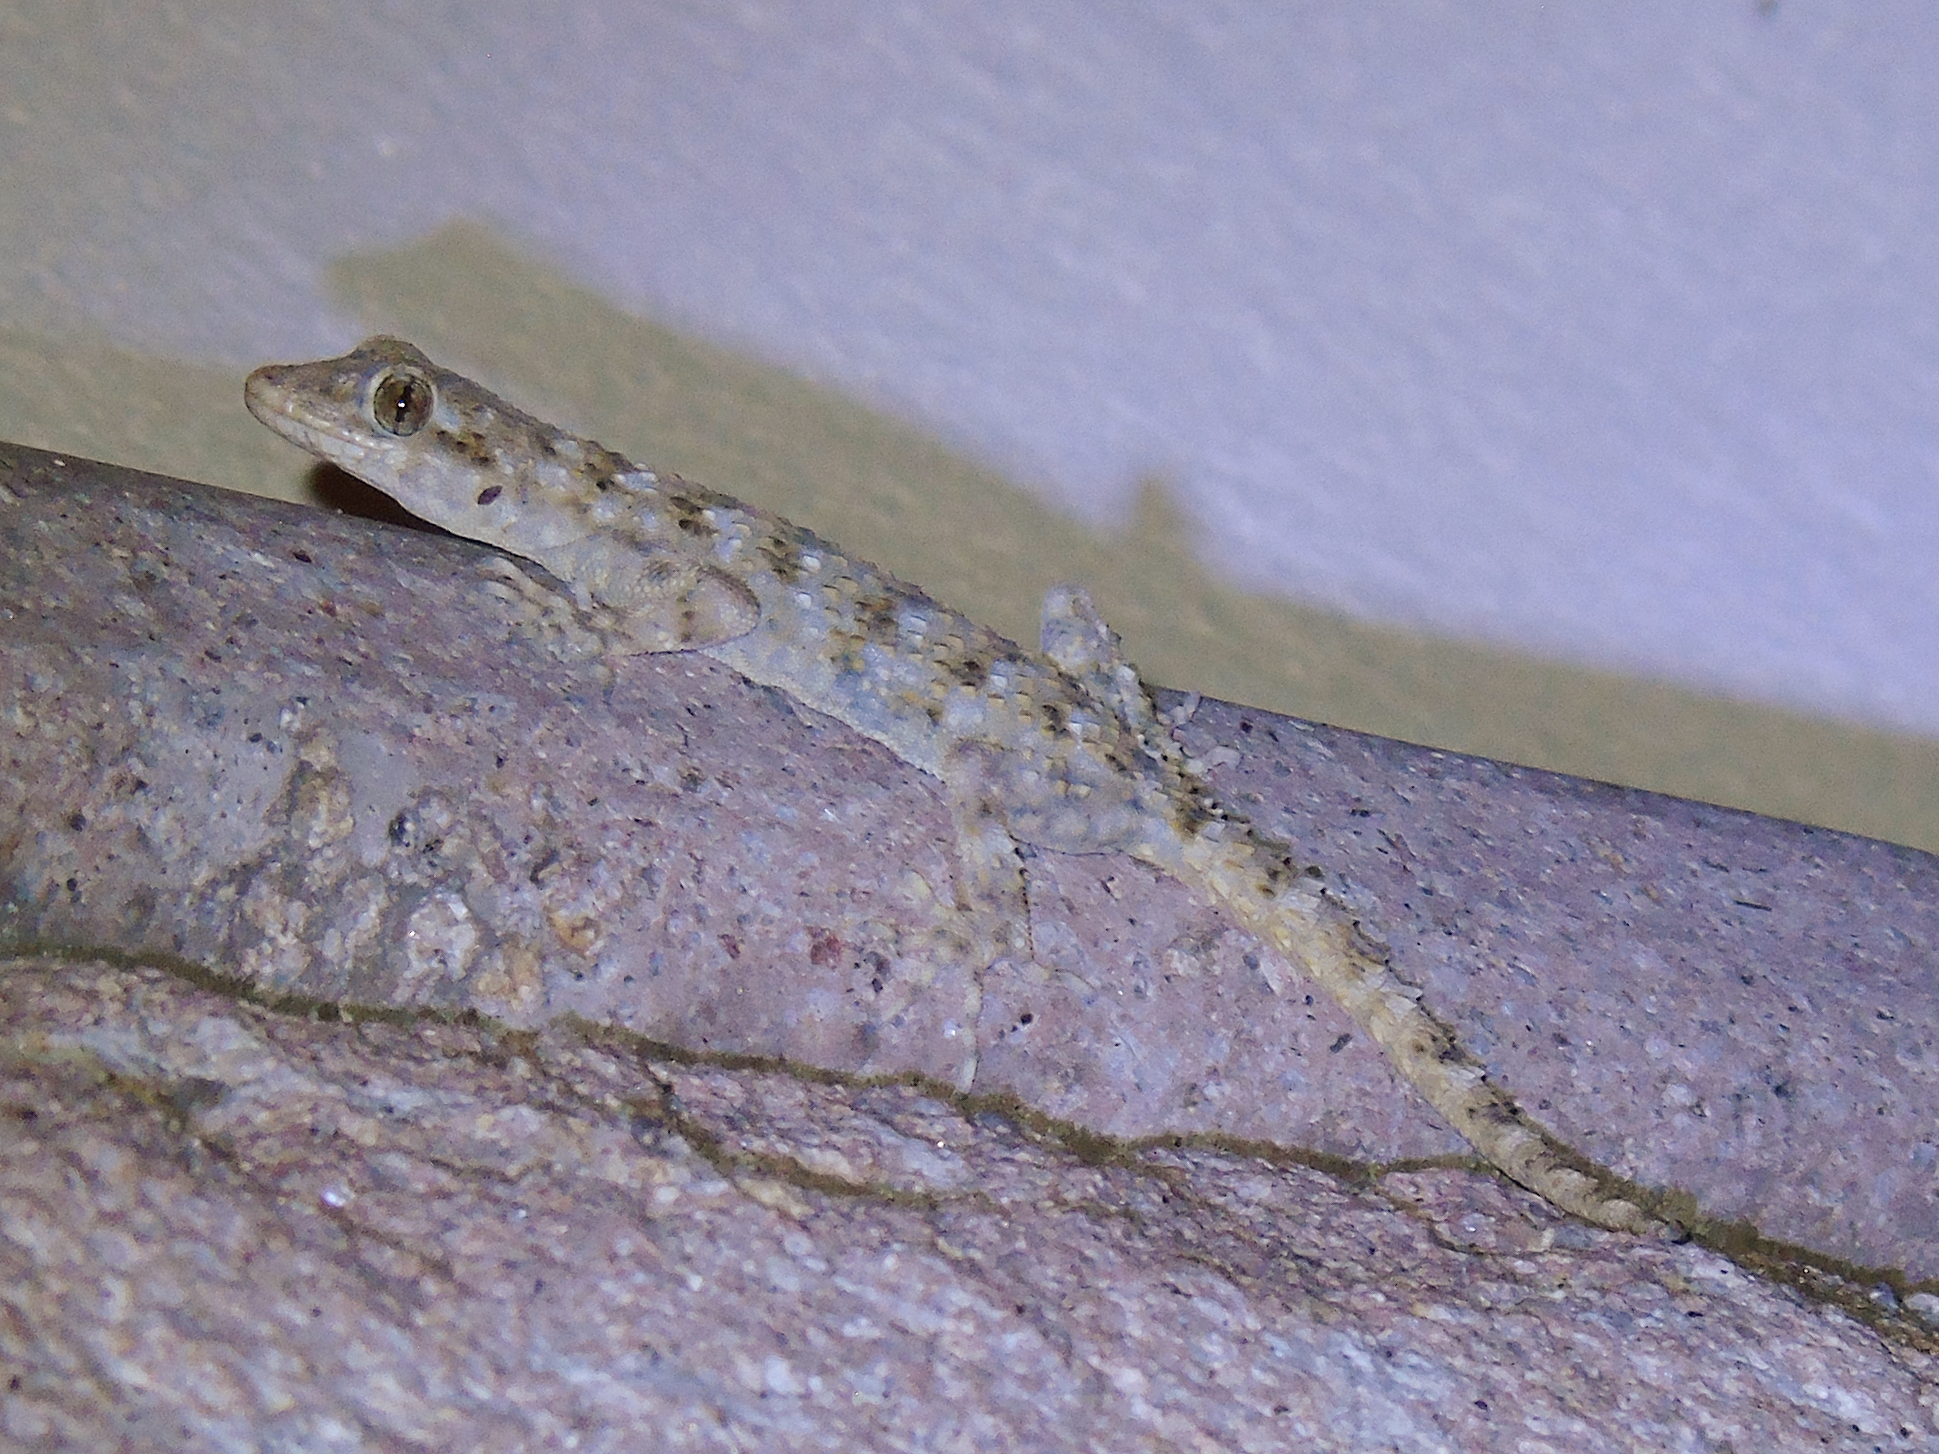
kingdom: Animalia
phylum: Chordata
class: Squamata
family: Gekkonidae
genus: Mediodactylus
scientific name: Mediodactylus kotschyi
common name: Kotschy's gecko
